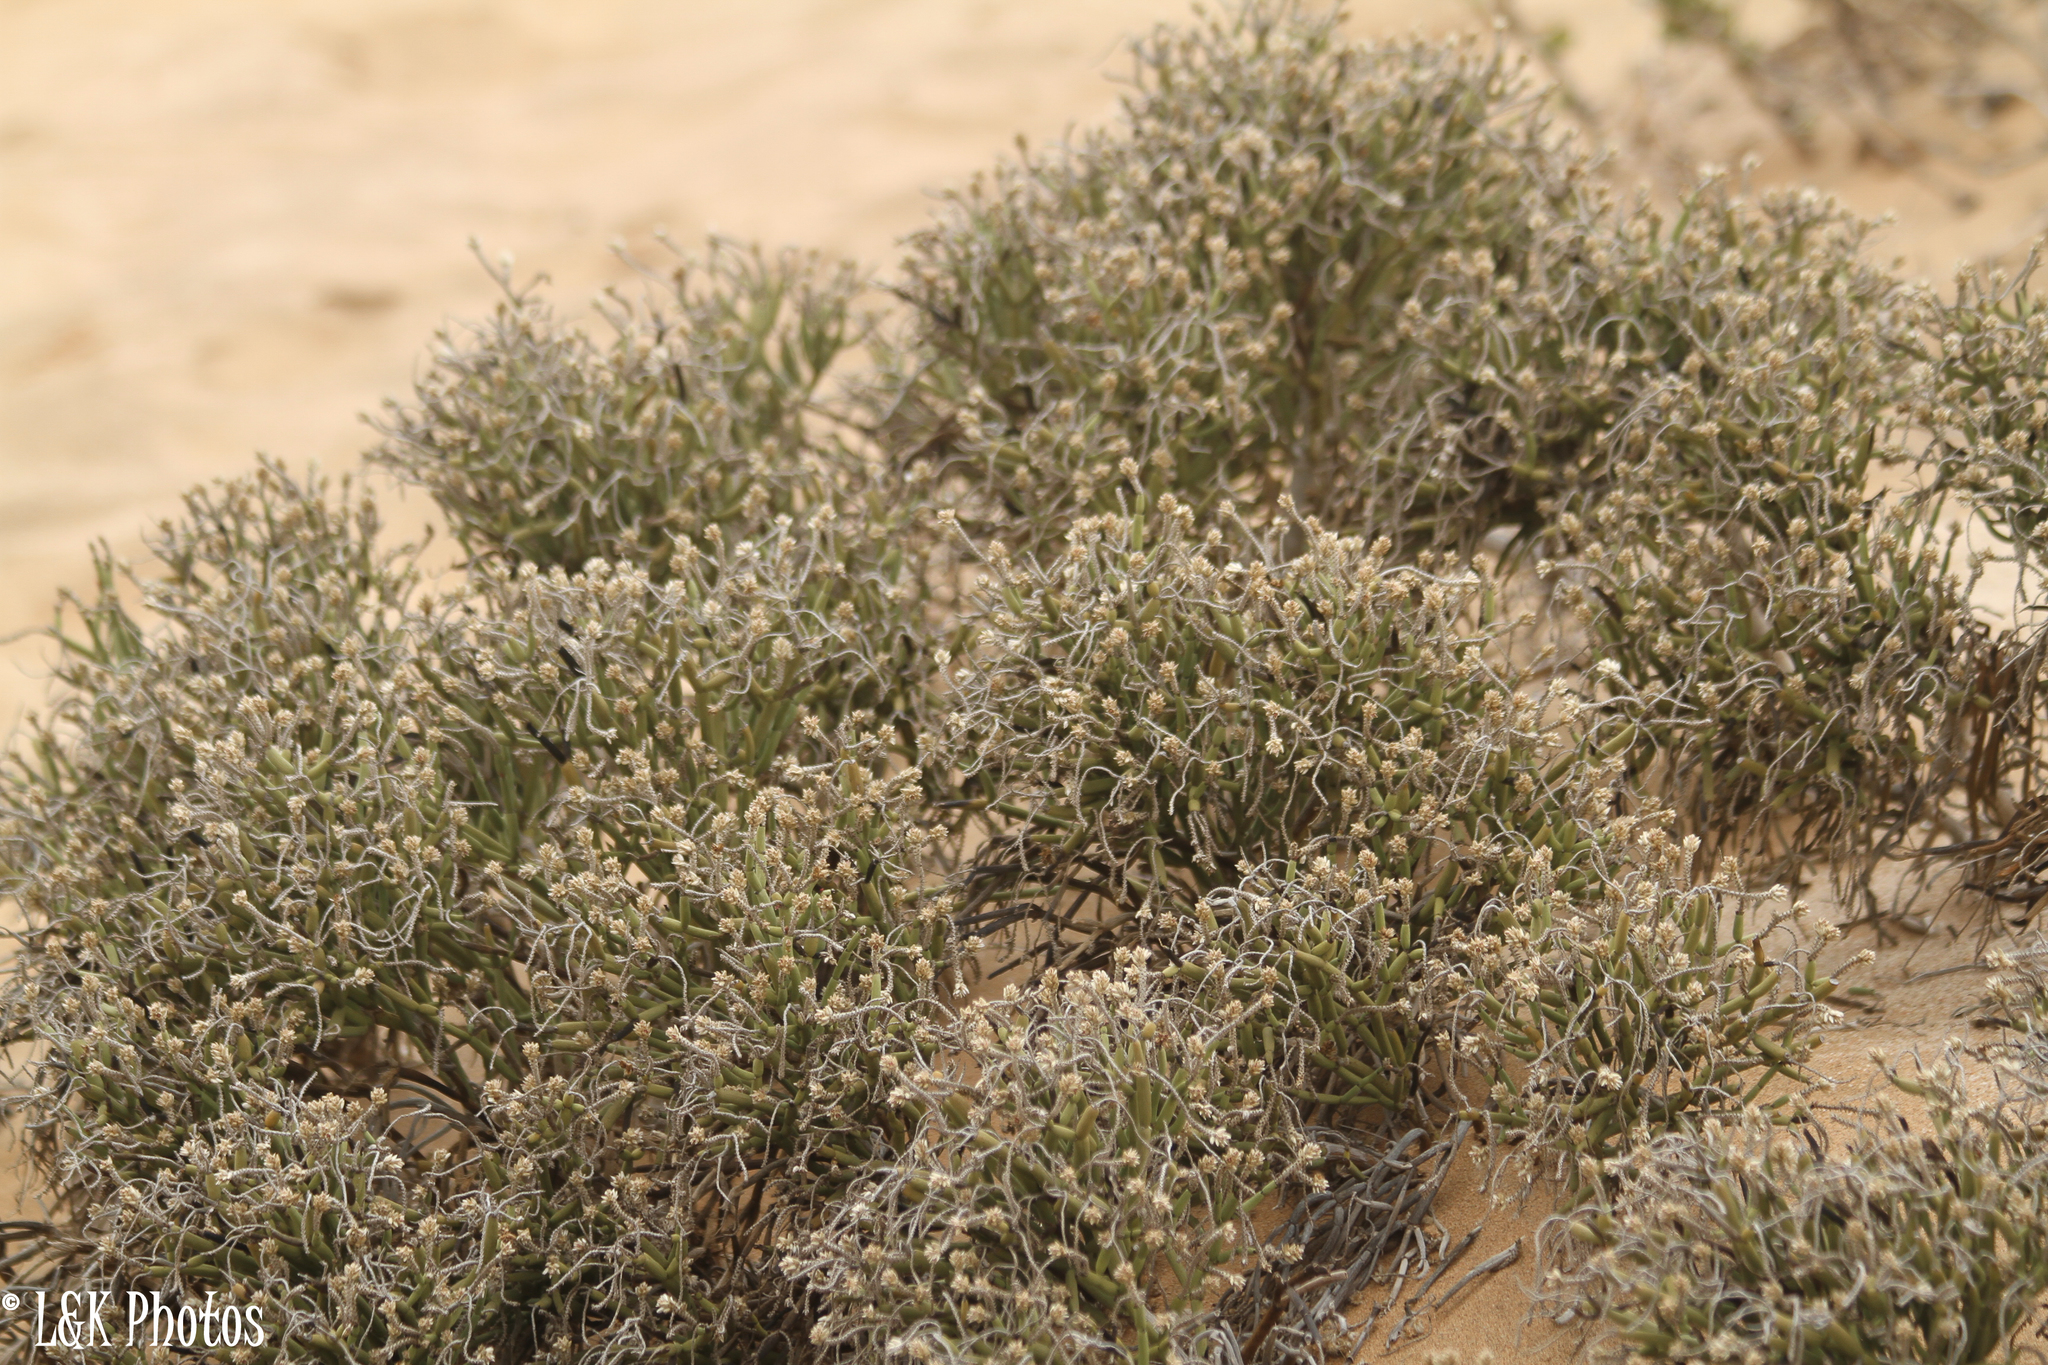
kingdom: Plantae
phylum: Tracheophyta
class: Magnoliopsida
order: Caryophyllales
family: Amaranthaceae
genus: Arthraerva
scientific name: Arthraerva leubnitziae
